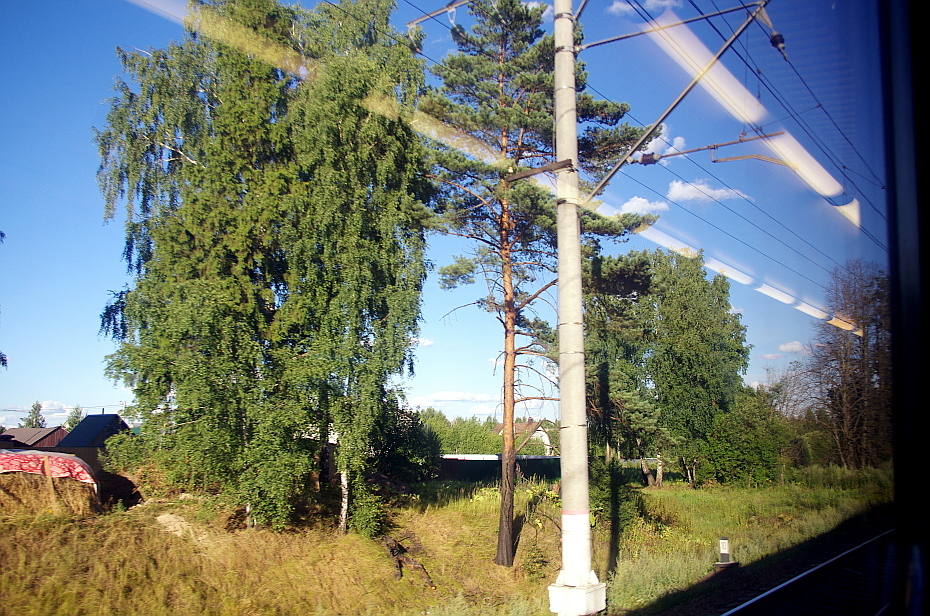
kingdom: Plantae
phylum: Tracheophyta
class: Pinopsida
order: Pinales
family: Pinaceae
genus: Pinus
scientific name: Pinus sylvestris
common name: Scots pine
